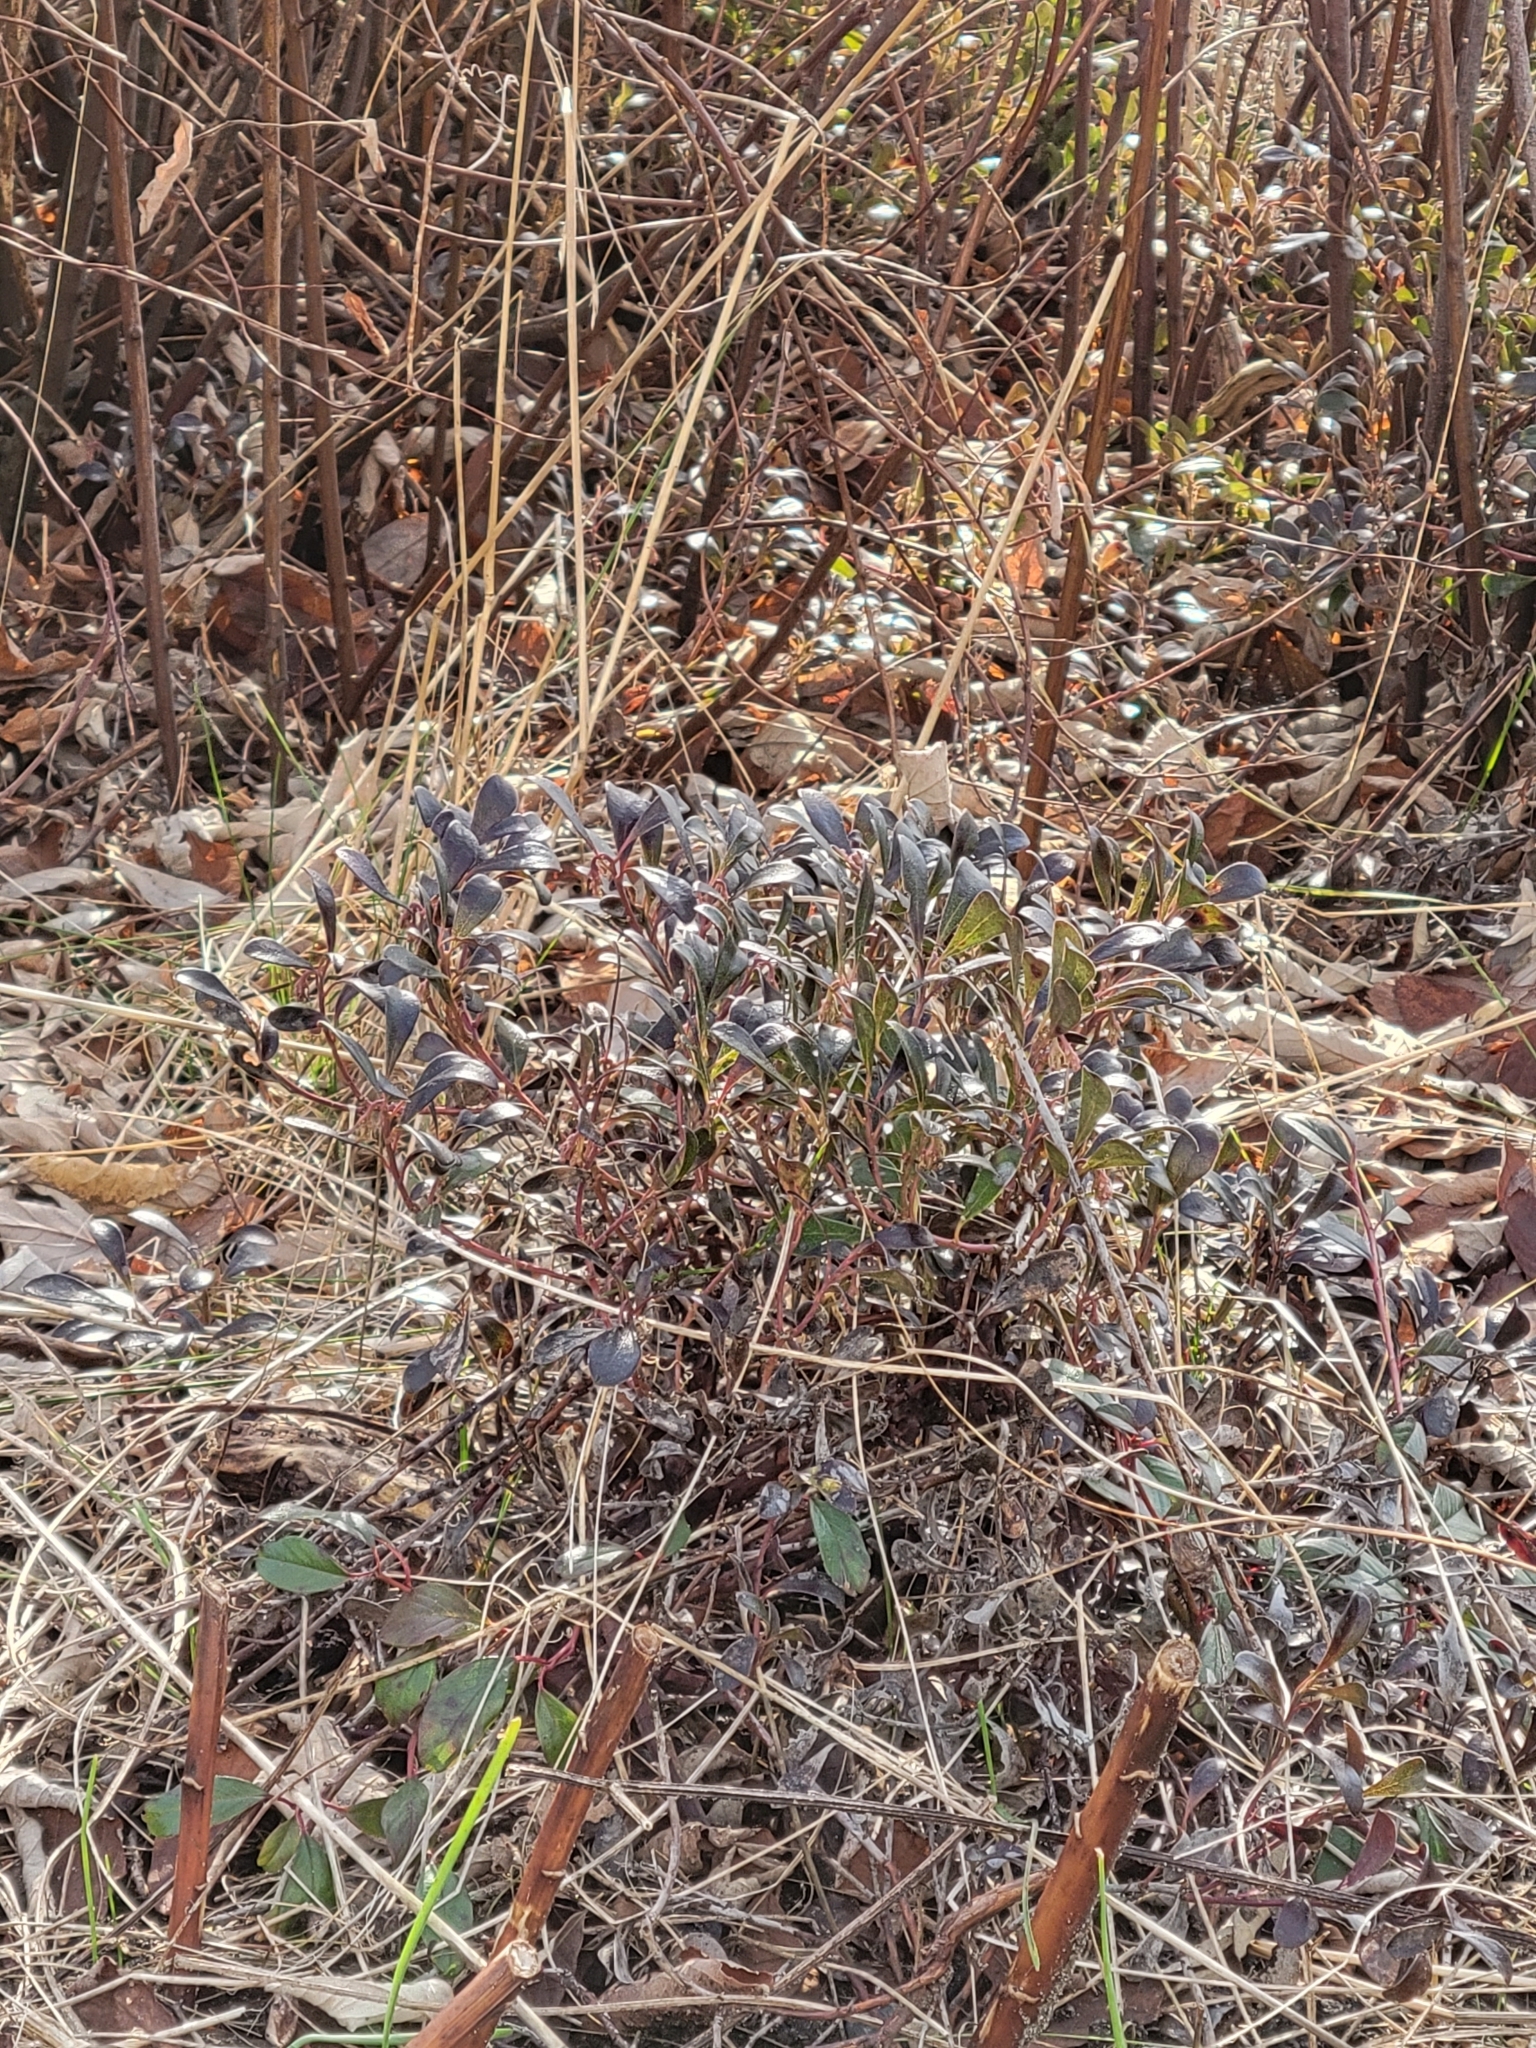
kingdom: Plantae
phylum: Tracheophyta
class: Magnoliopsida
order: Ericales
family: Ericaceae
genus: Arctostaphylos
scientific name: Arctostaphylos uva-ursi
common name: Bearberry
